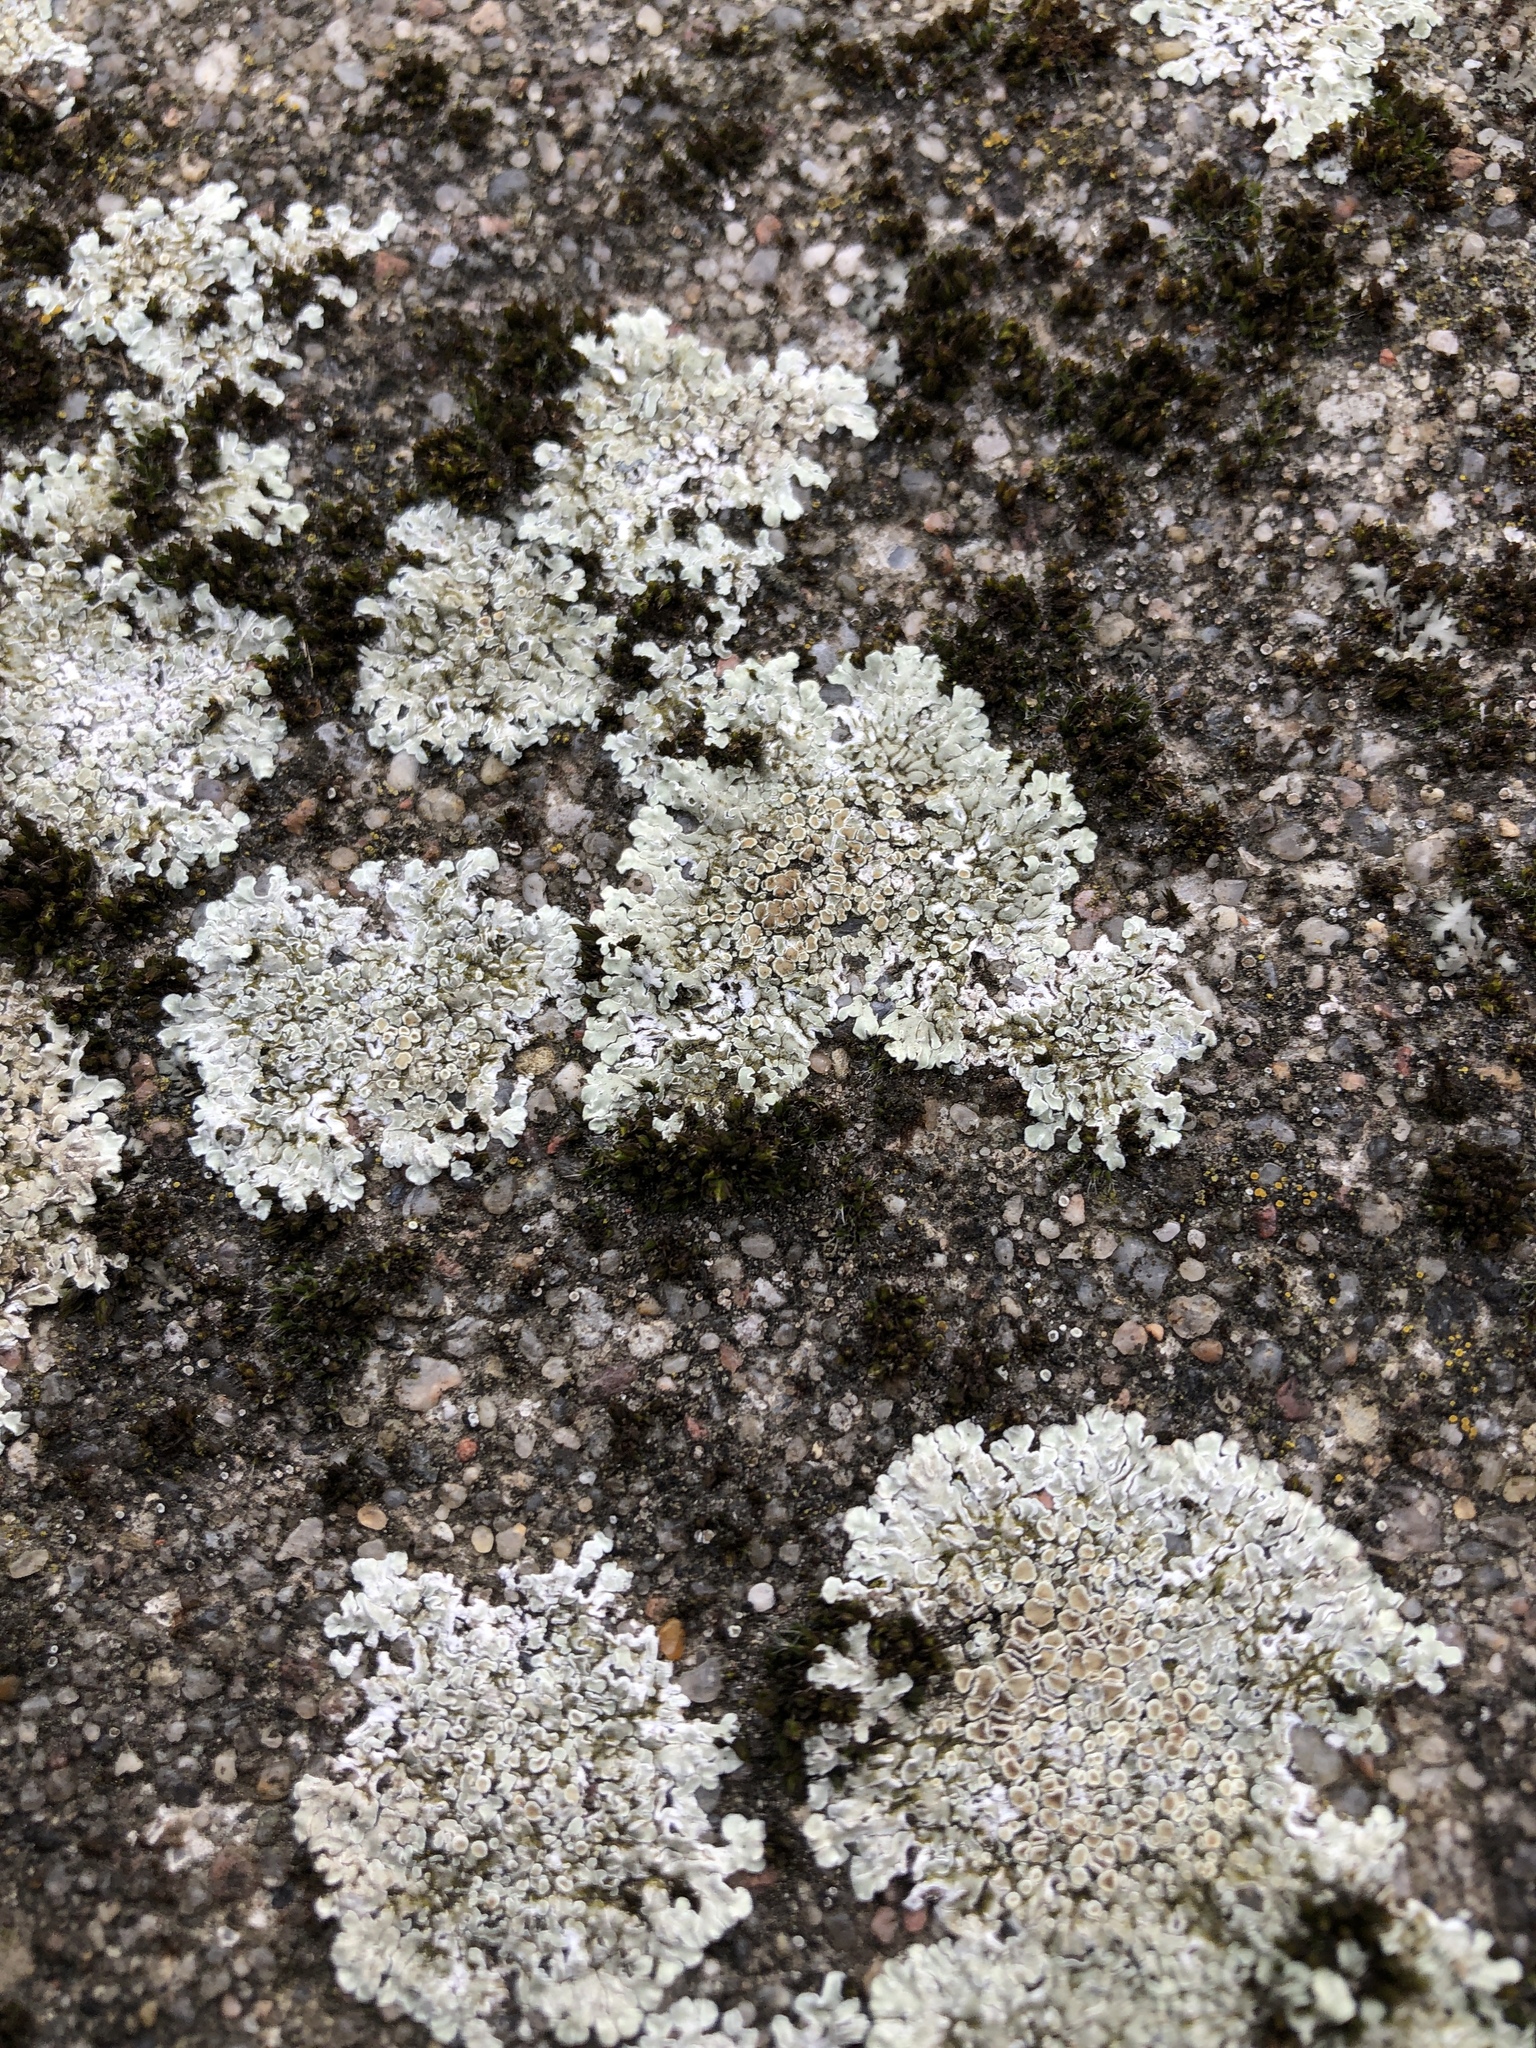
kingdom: Fungi
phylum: Ascomycota
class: Lecanoromycetes
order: Lecanorales
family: Lecanoraceae
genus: Protoparmeliopsis
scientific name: Protoparmeliopsis muralis
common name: Stonewall rim lichen
